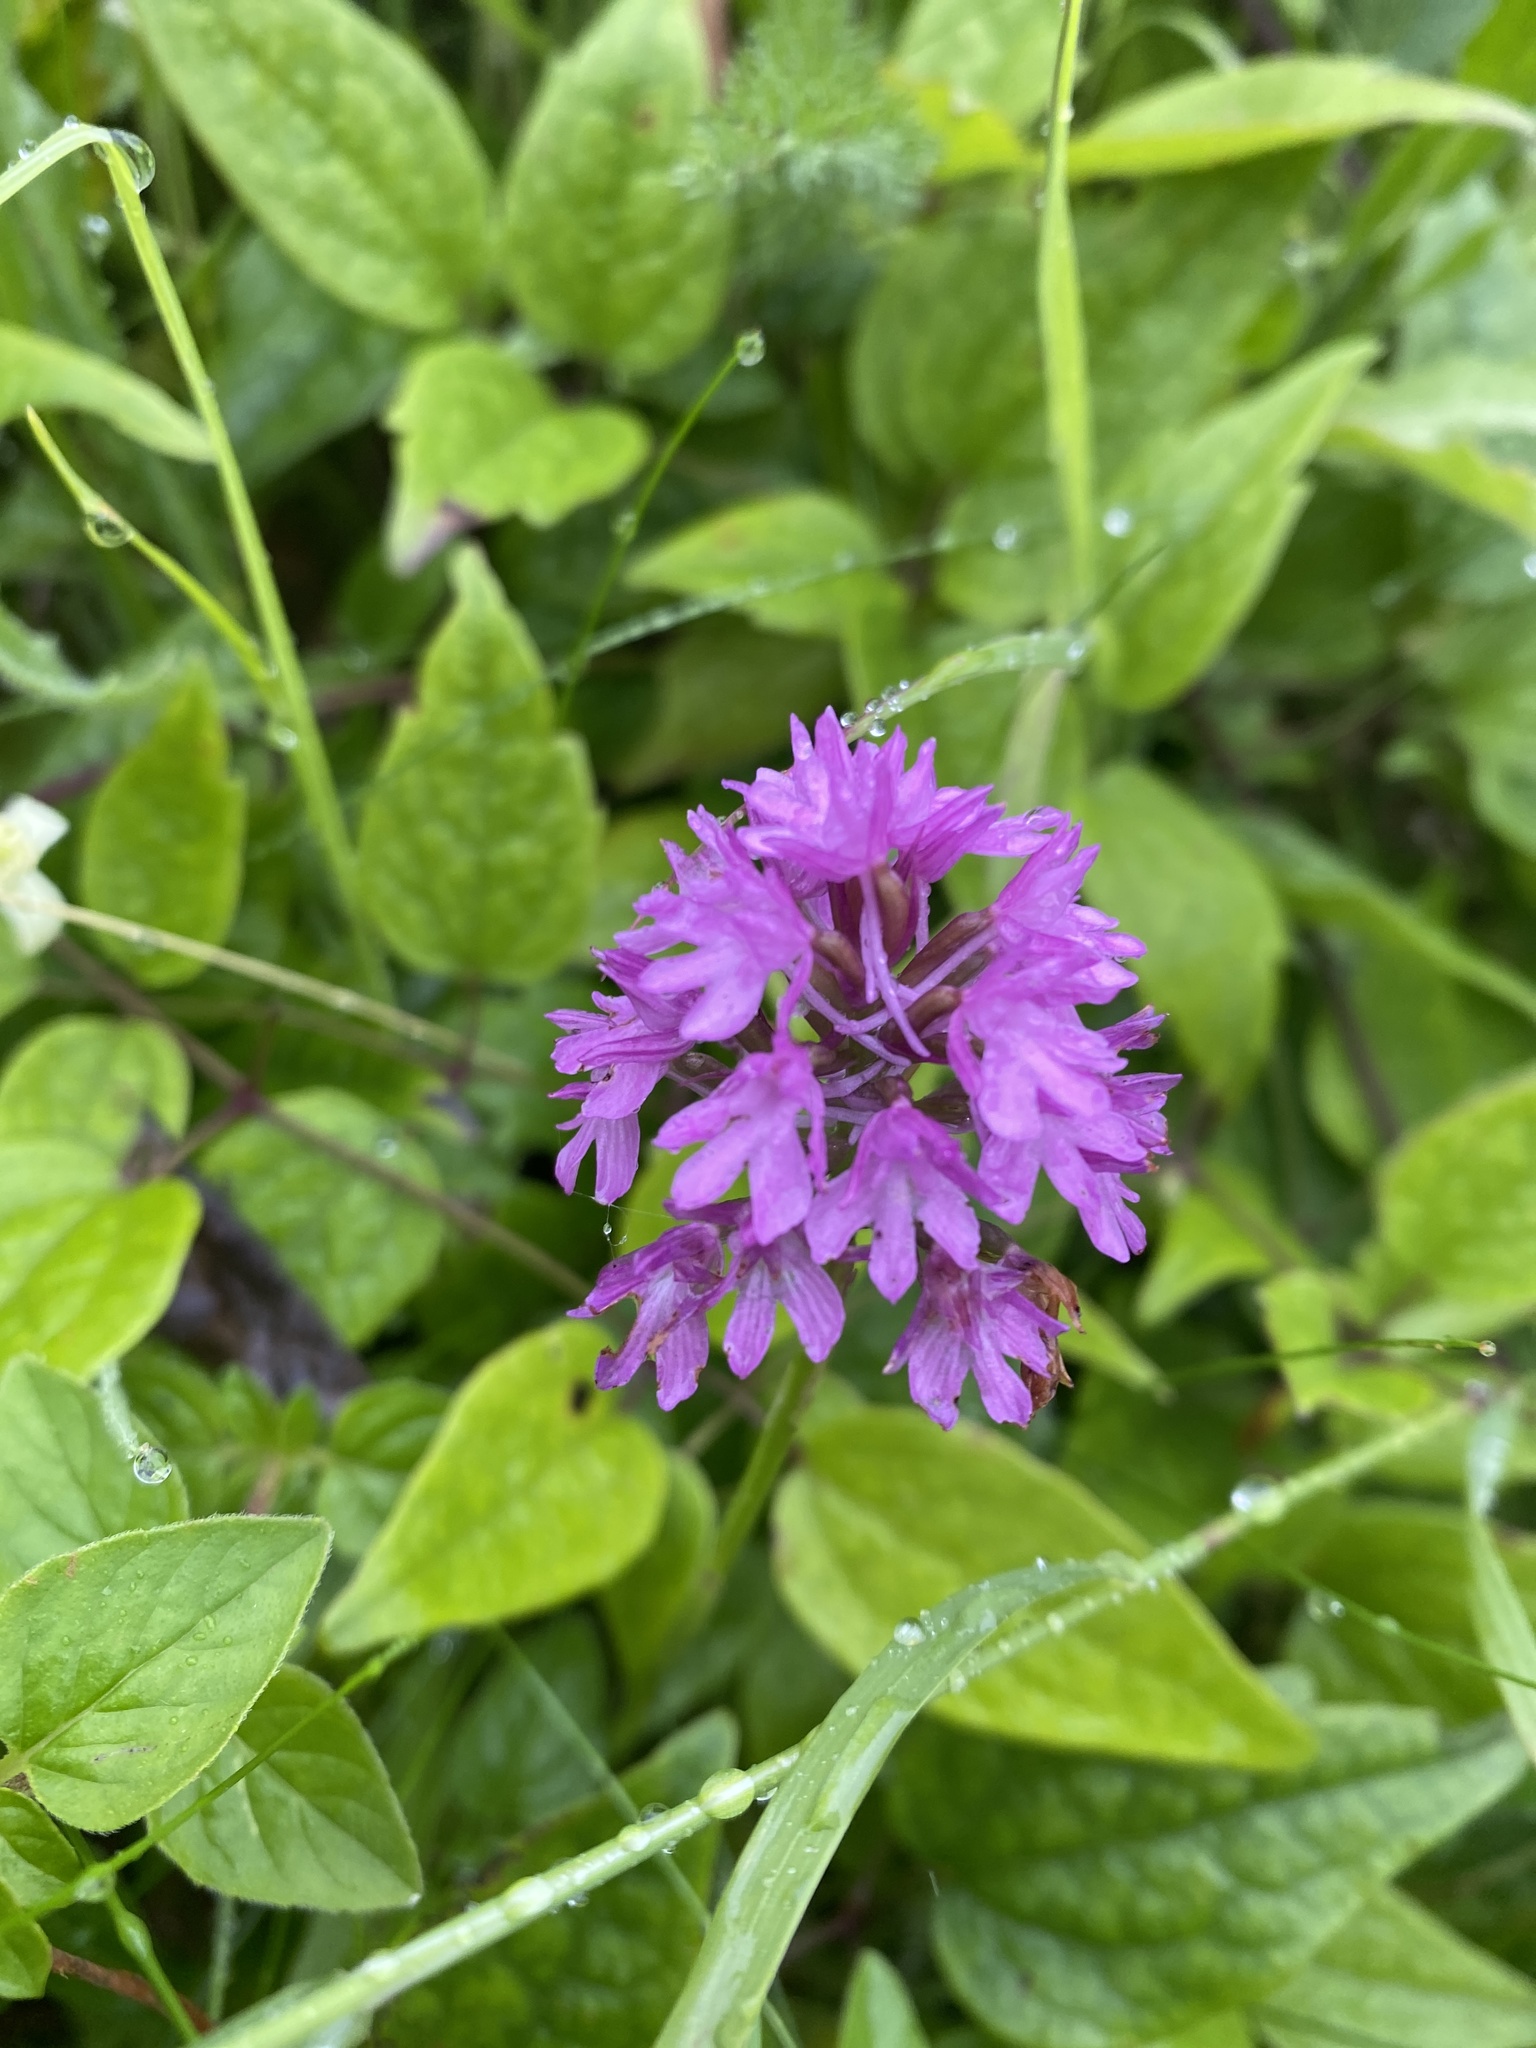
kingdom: Plantae
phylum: Tracheophyta
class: Liliopsida
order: Asparagales
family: Orchidaceae
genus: Anacamptis
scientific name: Anacamptis pyramidalis
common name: Pyramidal orchid
